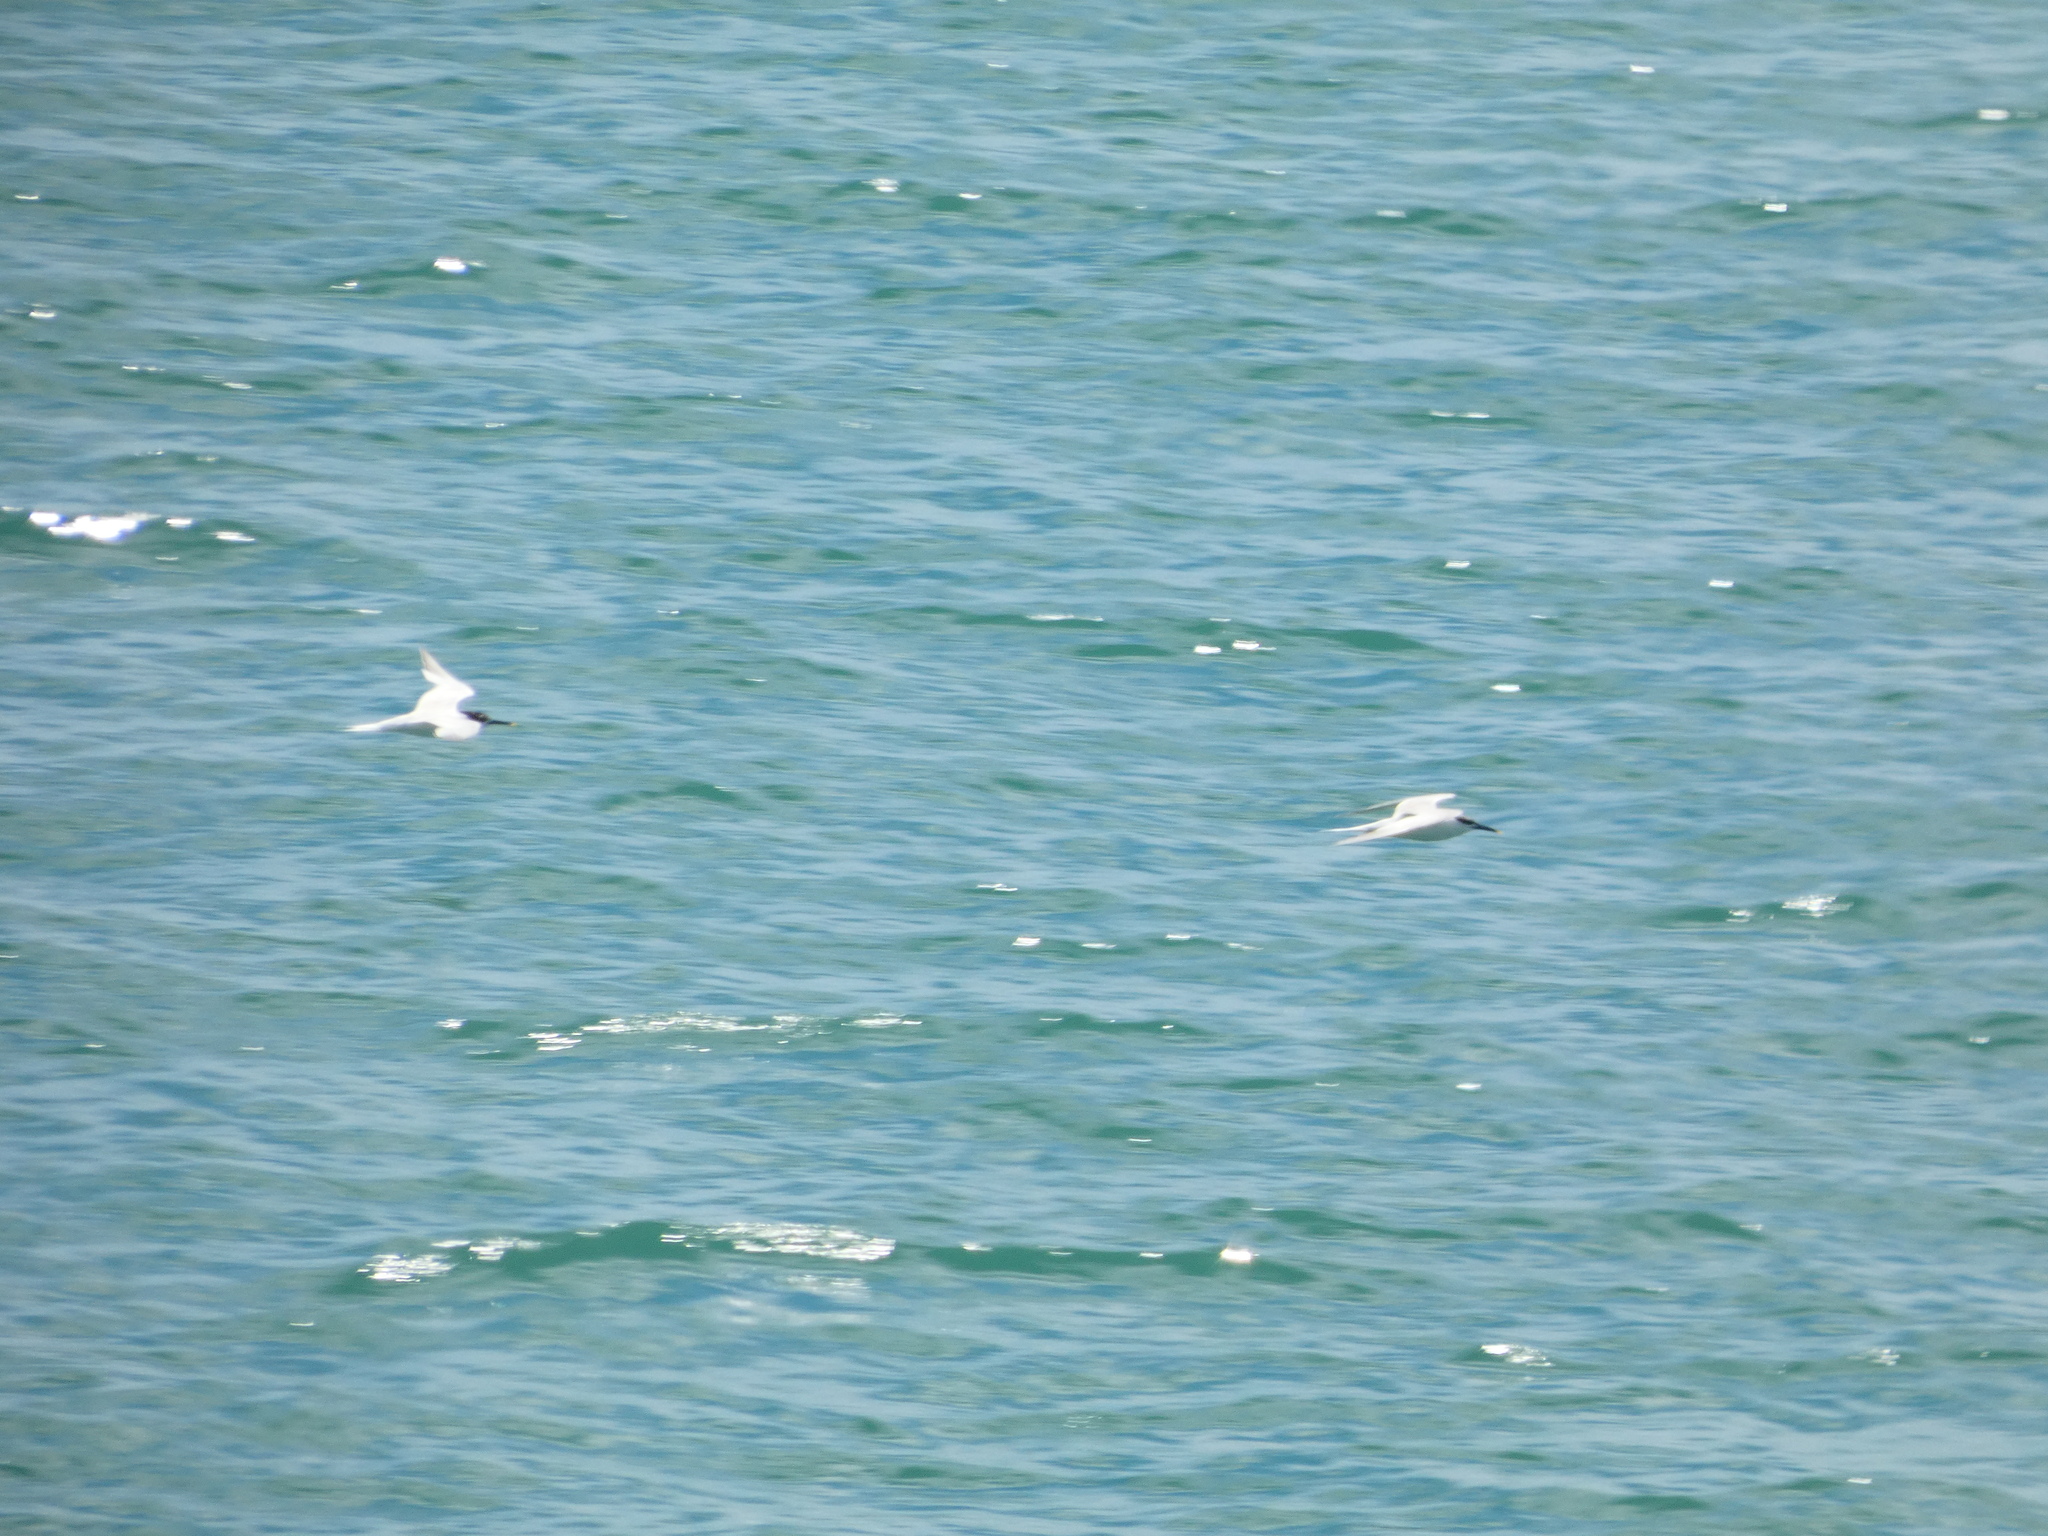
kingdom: Animalia
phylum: Chordata
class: Aves
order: Charadriiformes
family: Laridae
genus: Thalasseus
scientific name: Thalasseus sandvicensis
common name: Sandwich tern
